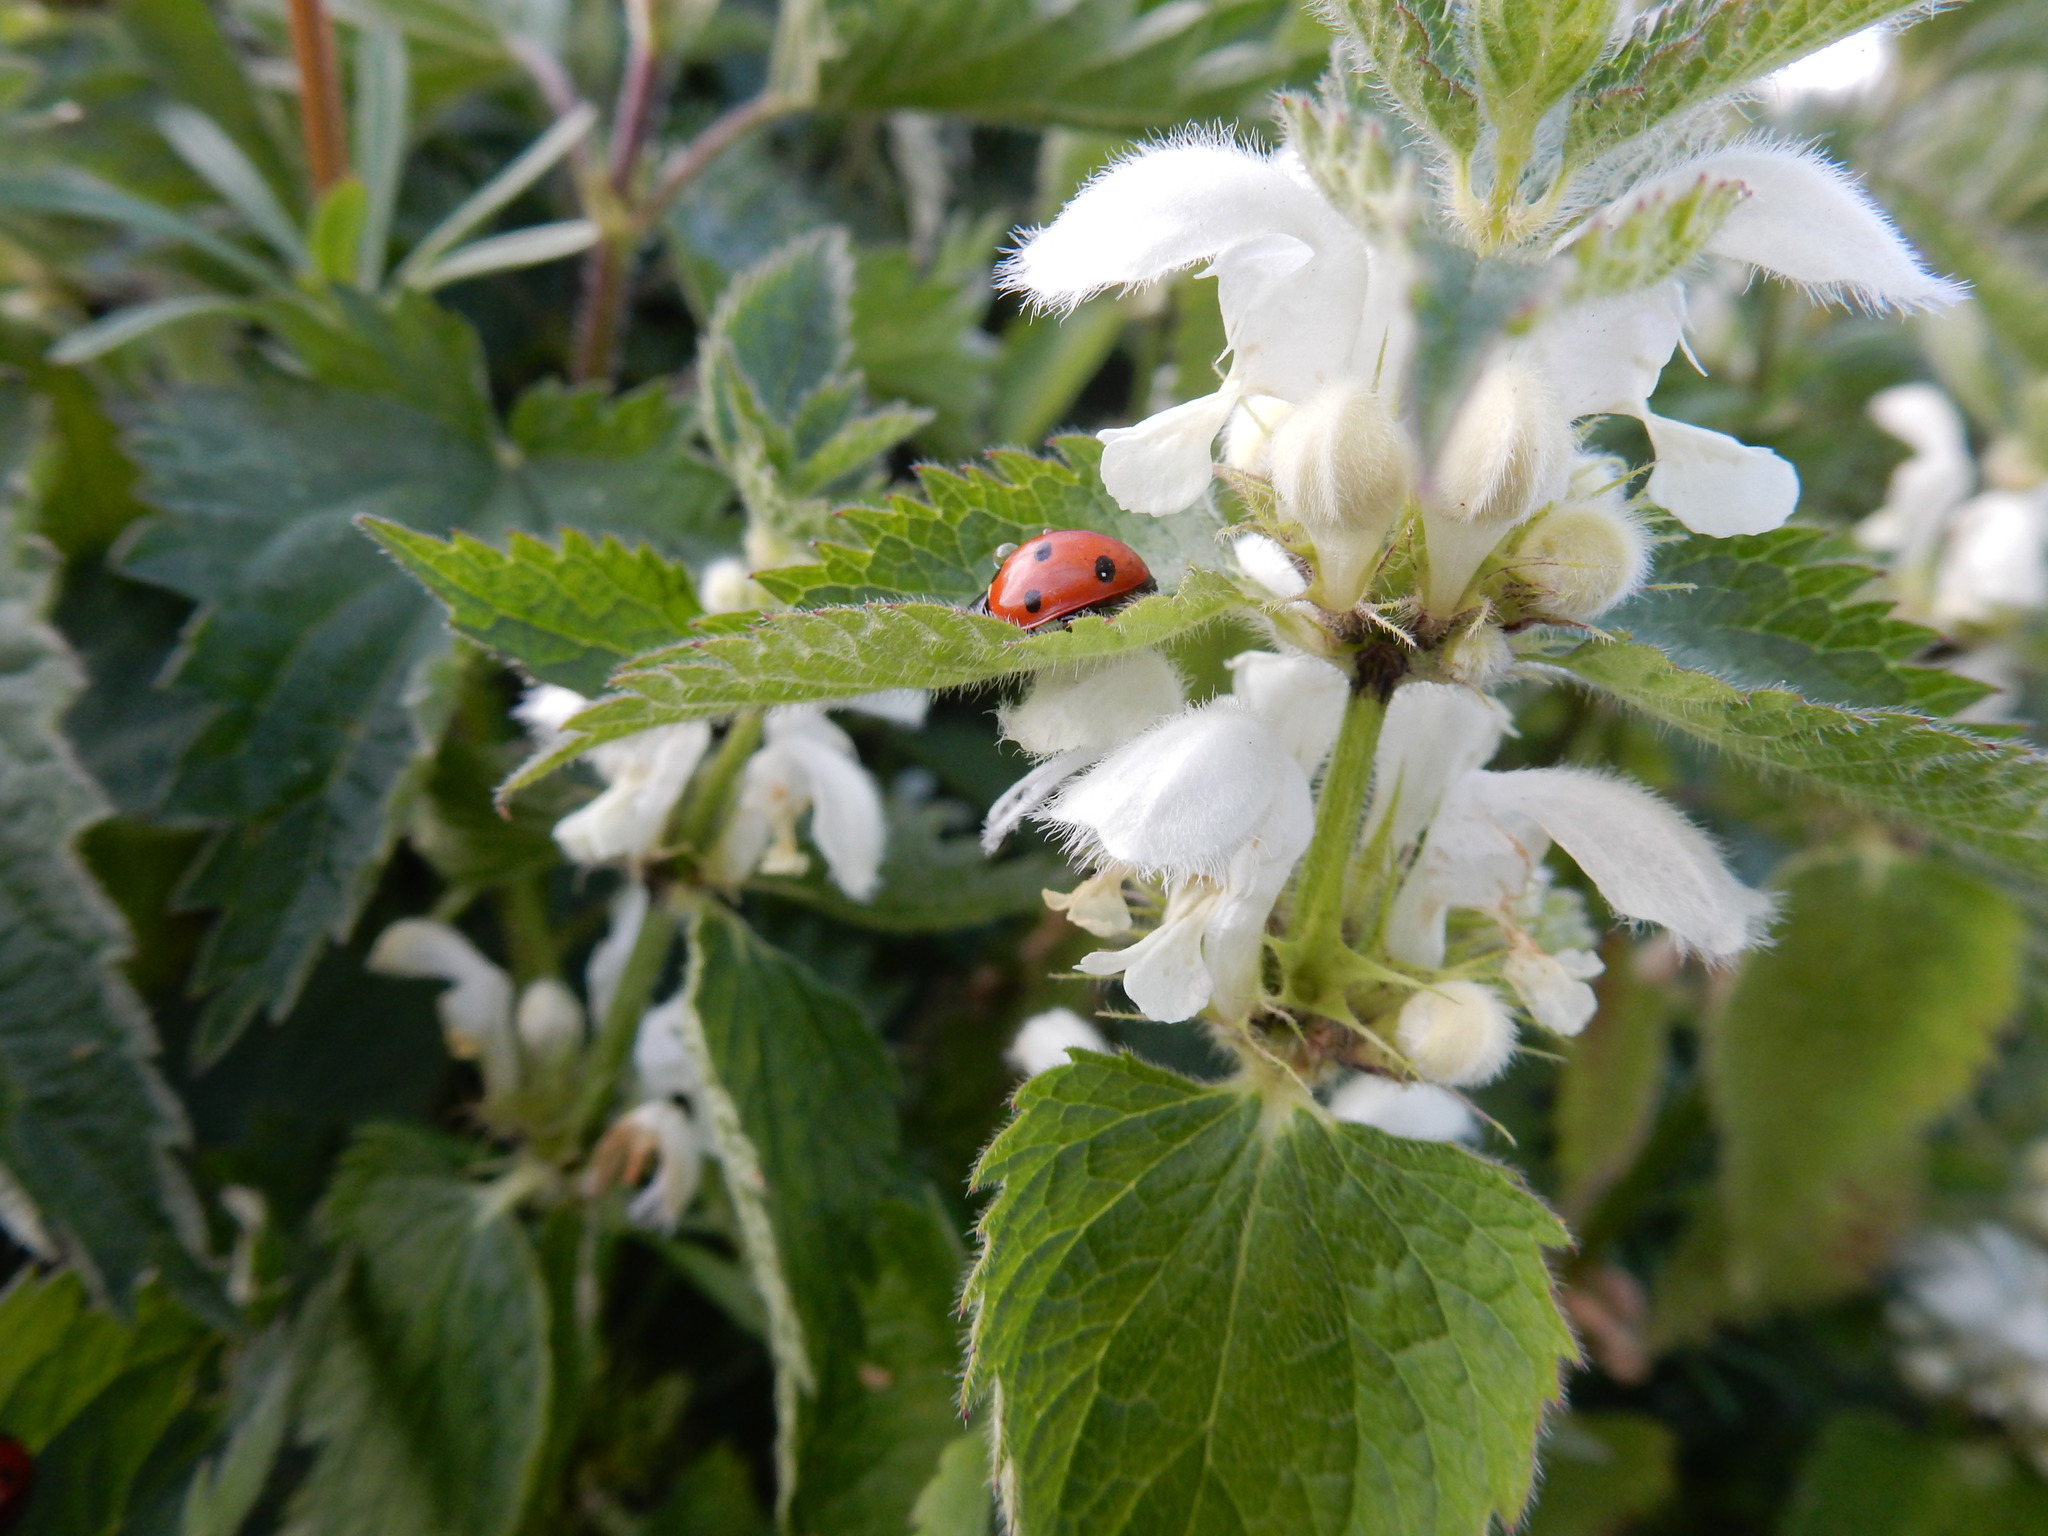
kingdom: Animalia
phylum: Arthropoda
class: Insecta
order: Coleoptera
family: Coccinellidae
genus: Coccinella
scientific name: Coccinella septempunctata
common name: Sevenspotted lady beetle
